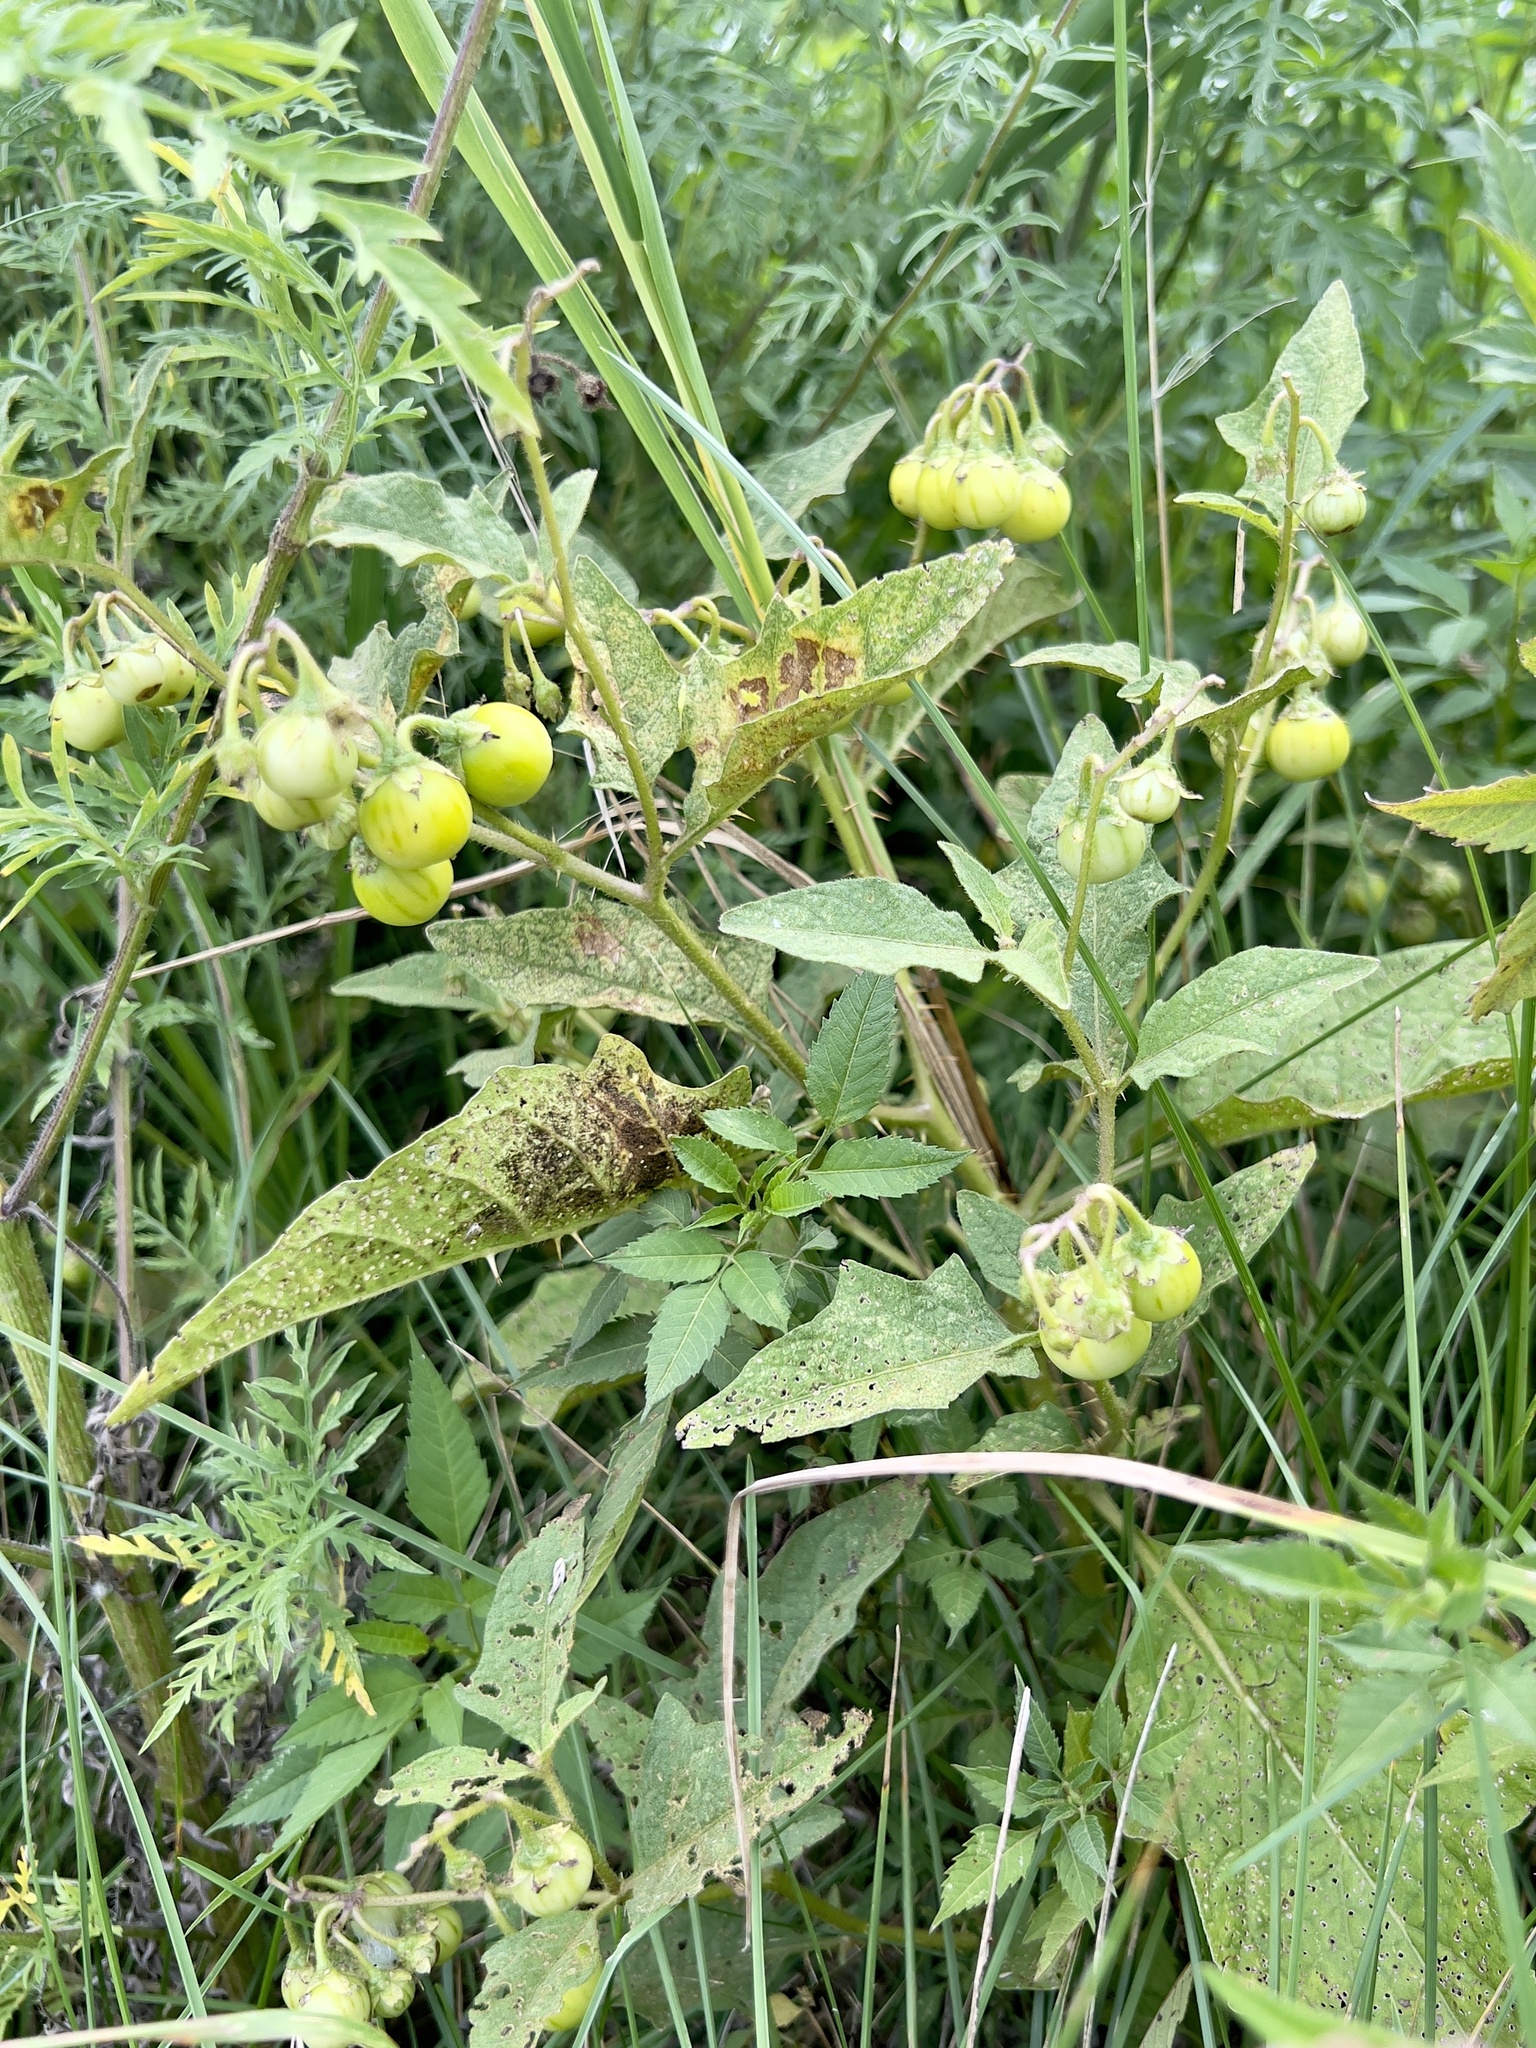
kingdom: Plantae
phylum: Tracheophyta
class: Magnoliopsida
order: Solanales
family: Solanaceae
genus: Solanum
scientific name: Solanum carolinense
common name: Horse-nettle
